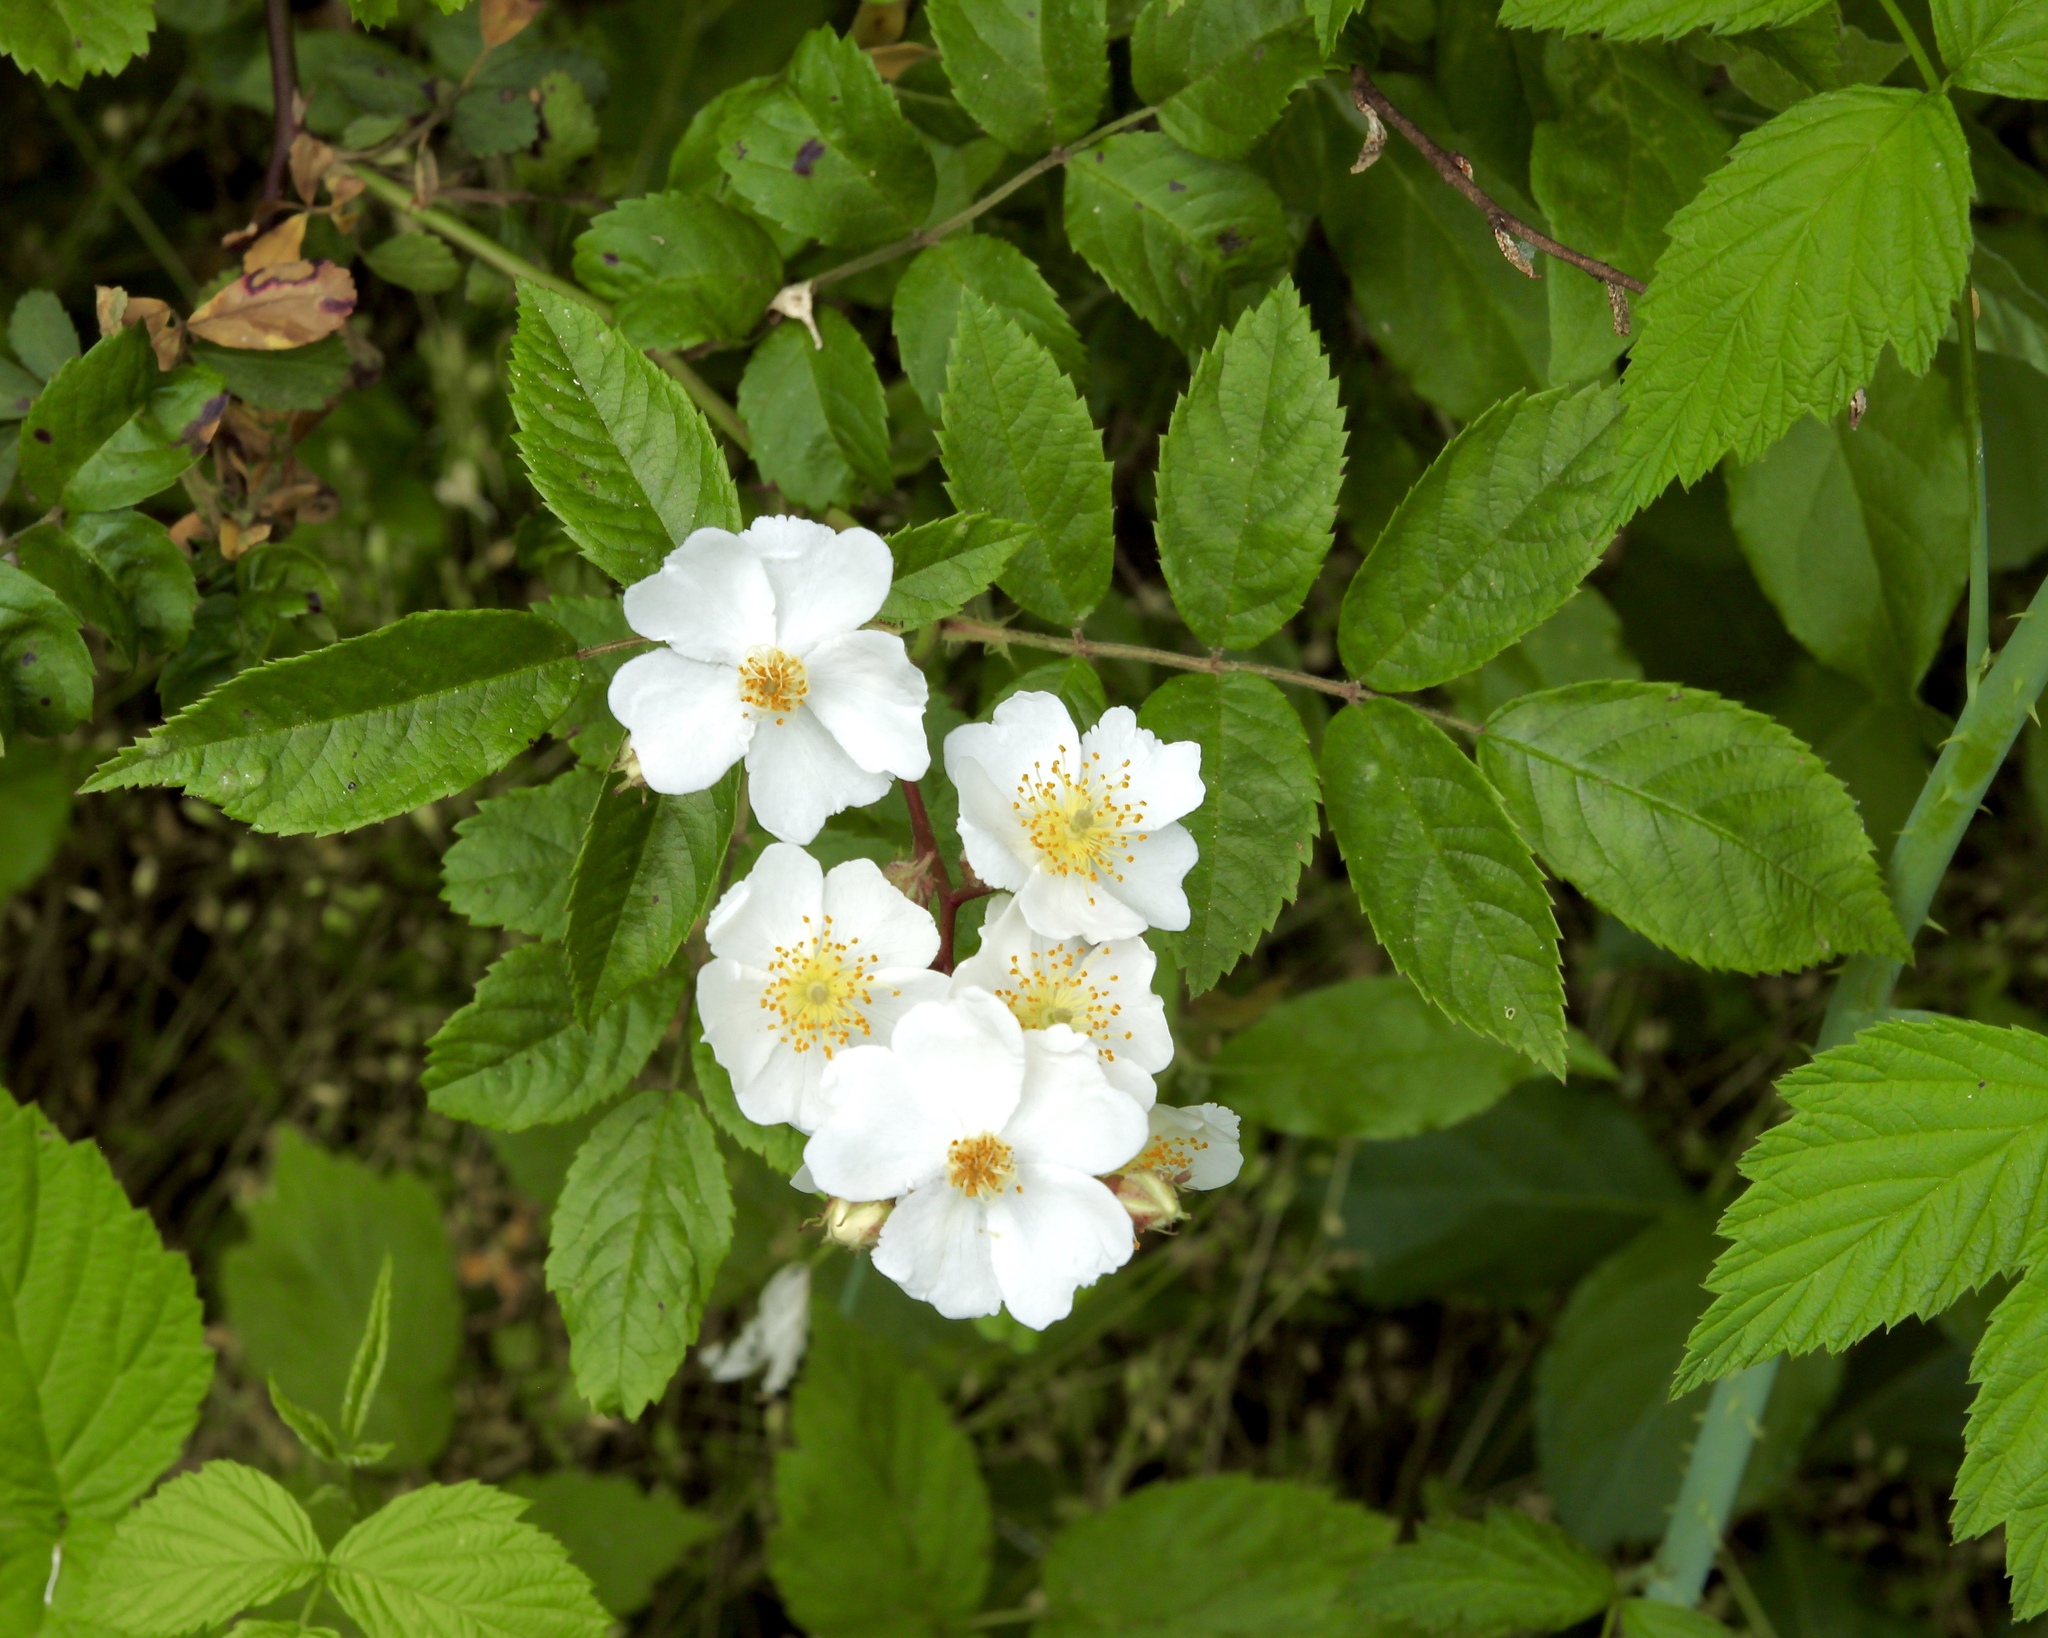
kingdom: Plantae
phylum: Tracheophyta
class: Magnoliopsida
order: Rosales
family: Rosaceae
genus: Rosa
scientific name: Rosa multiflora
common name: Multiflora rose
